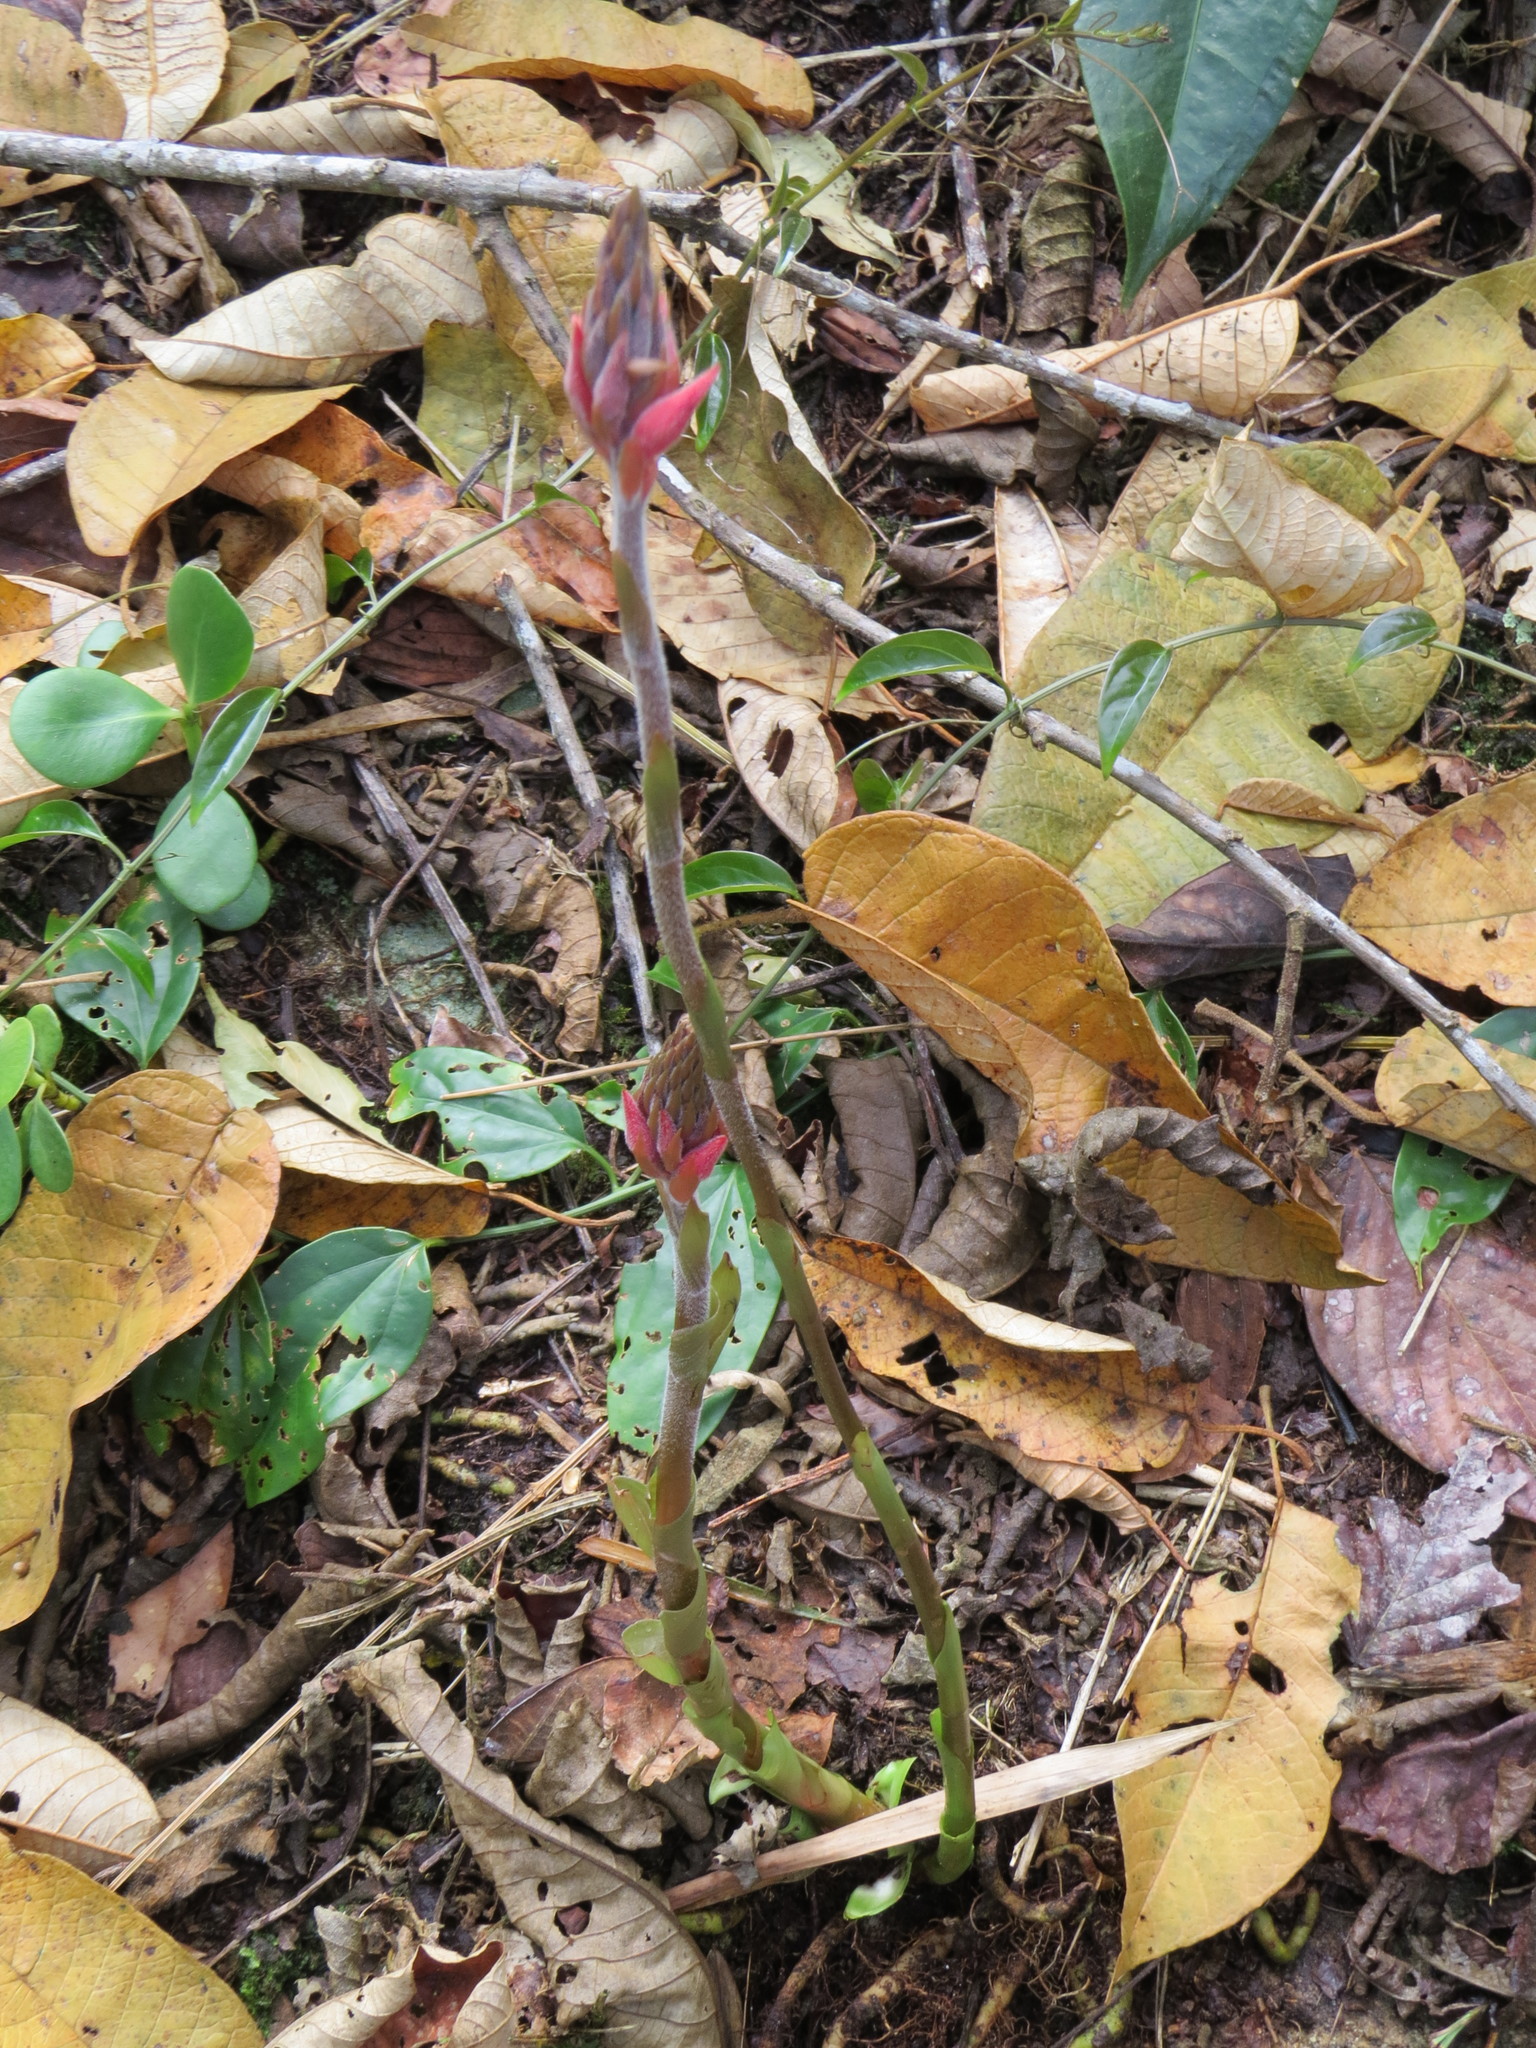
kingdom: Plantae
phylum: Tracheophyta
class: Liliopsida
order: Asparagales
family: Orchidaceae
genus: Sacoila
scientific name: Sacoila lanceolata
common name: Leafless beaked ladiestresses
